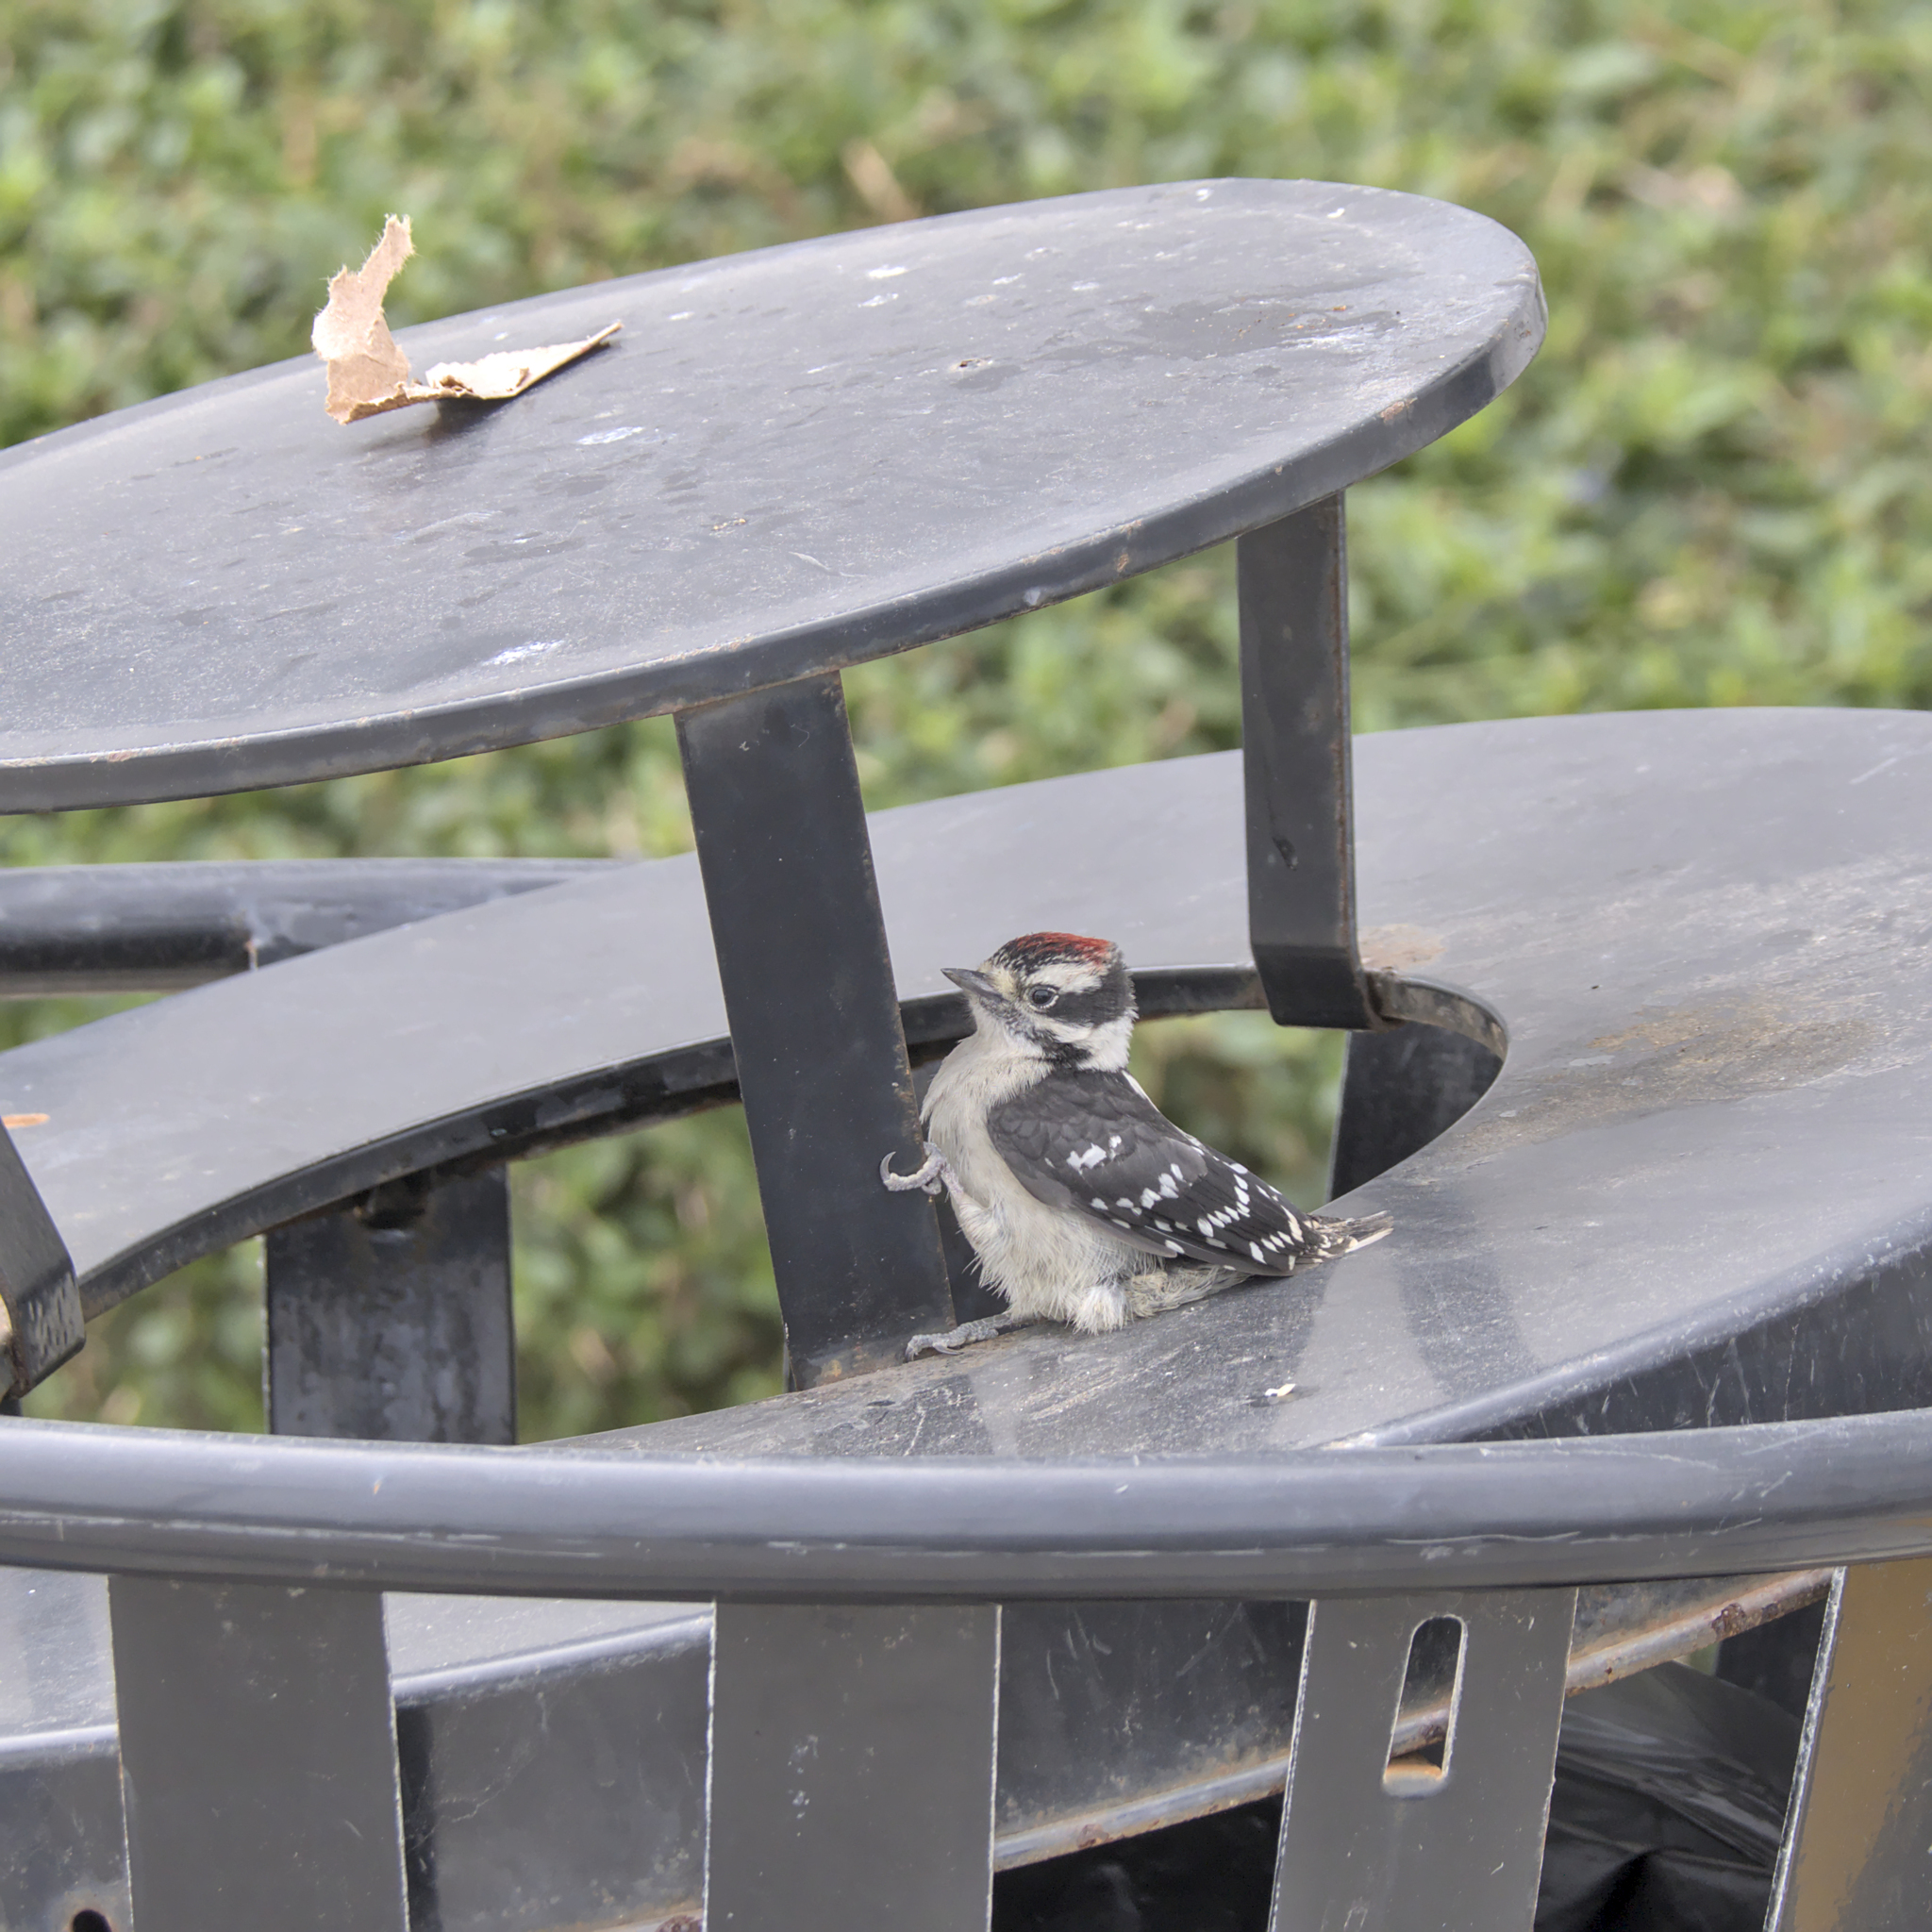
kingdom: Animalia
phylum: Chordata
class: Aves
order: Piciformes
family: Picidae
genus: Dryobates
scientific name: Dryobates pubescens
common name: Downy woodpecker
